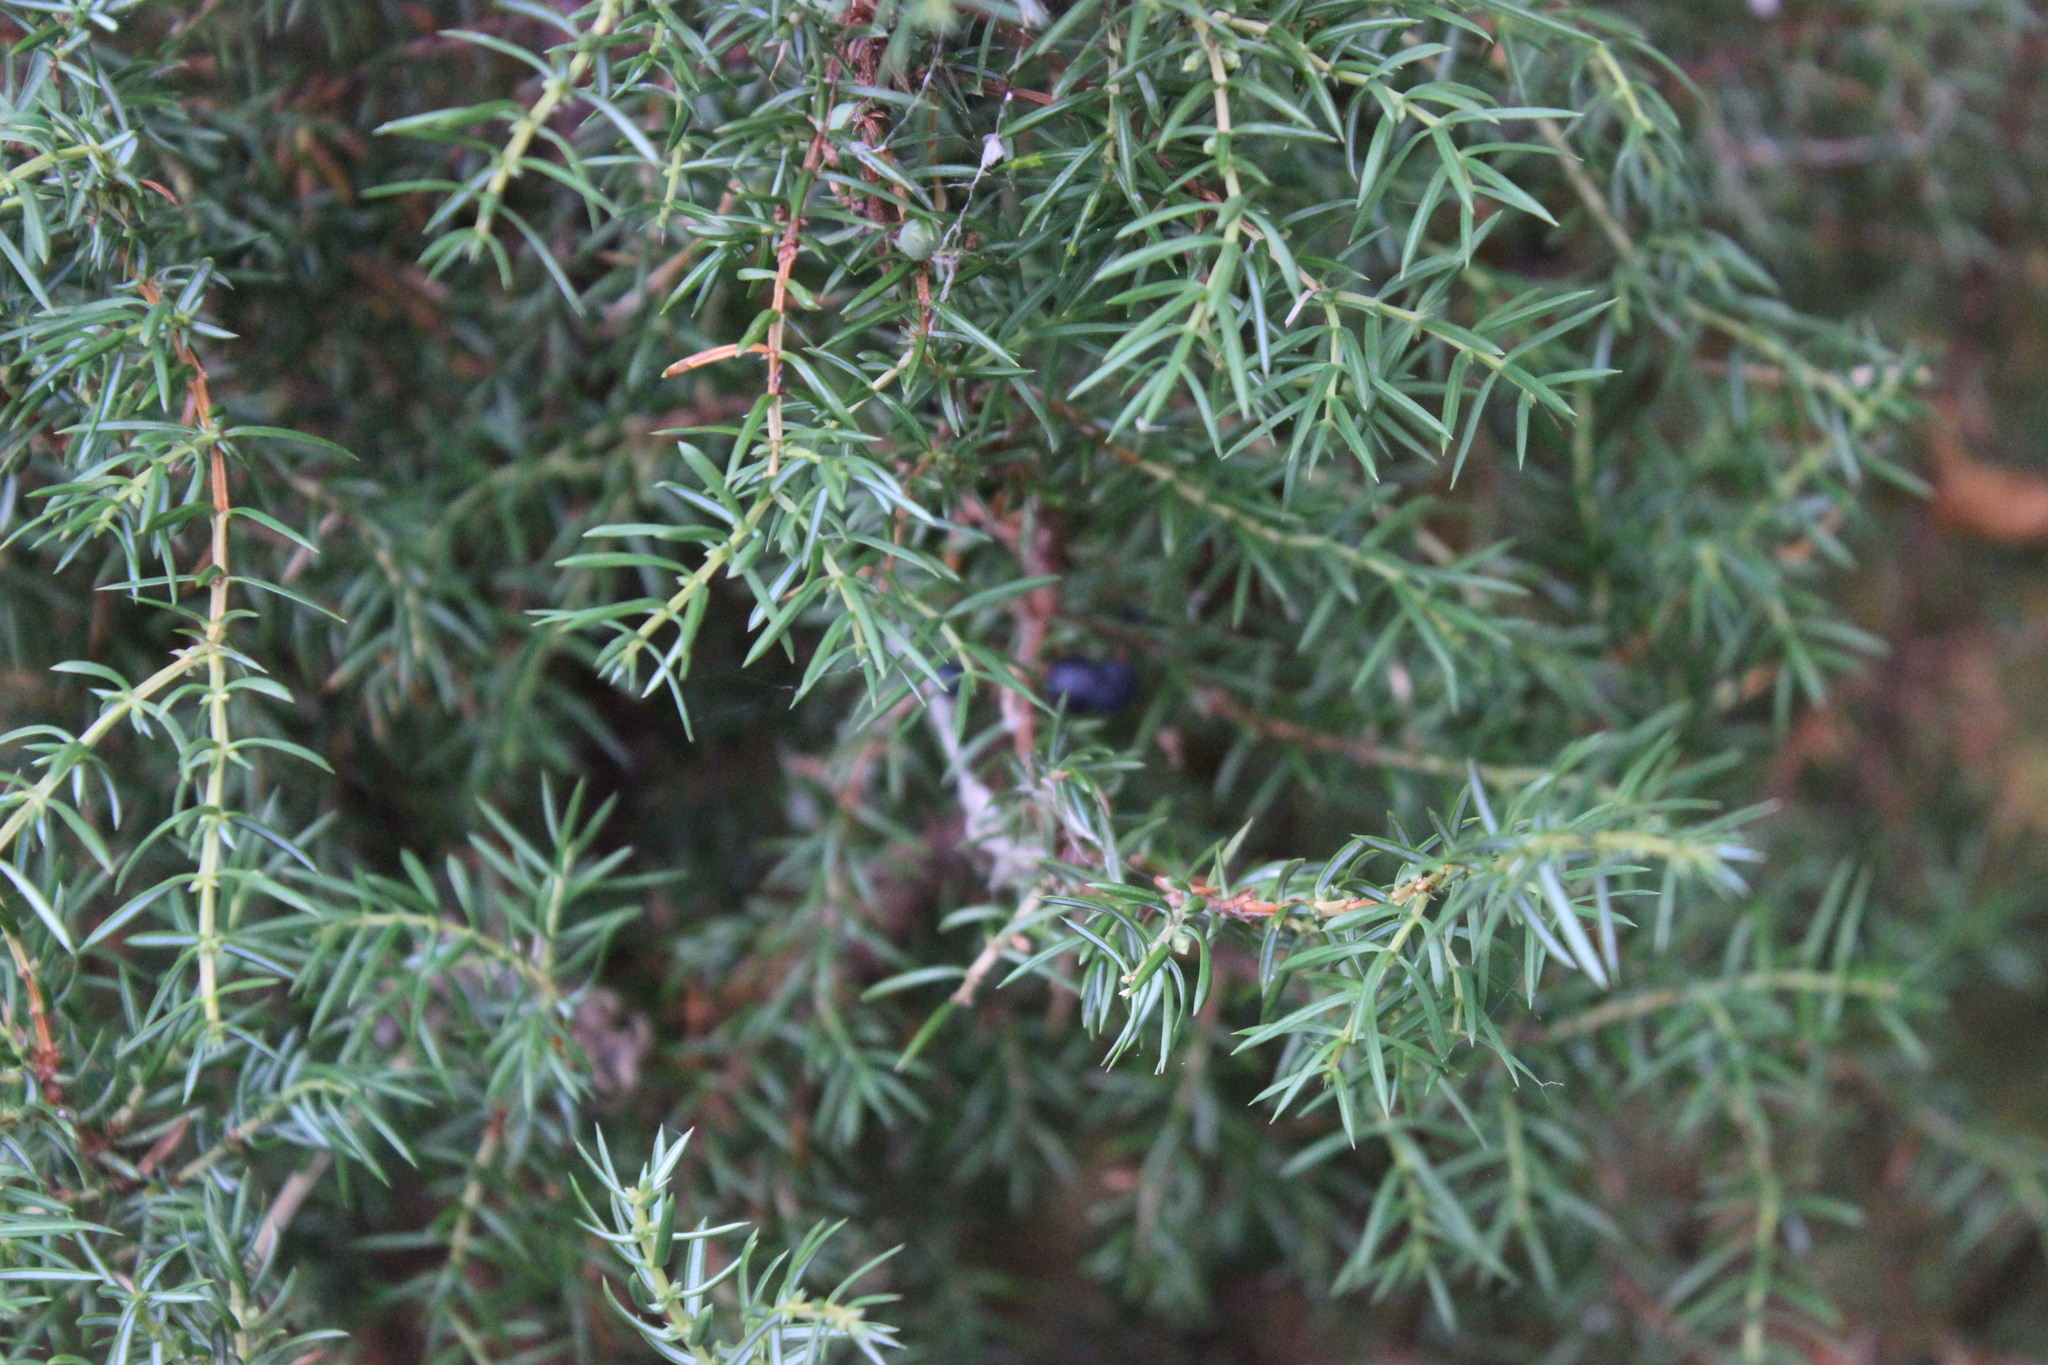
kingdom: Plantae
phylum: Tracheophyta
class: Pinopsida
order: Pinales
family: Cupressaceae
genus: Juniperus
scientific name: Juniperus communis
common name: Common juniper
